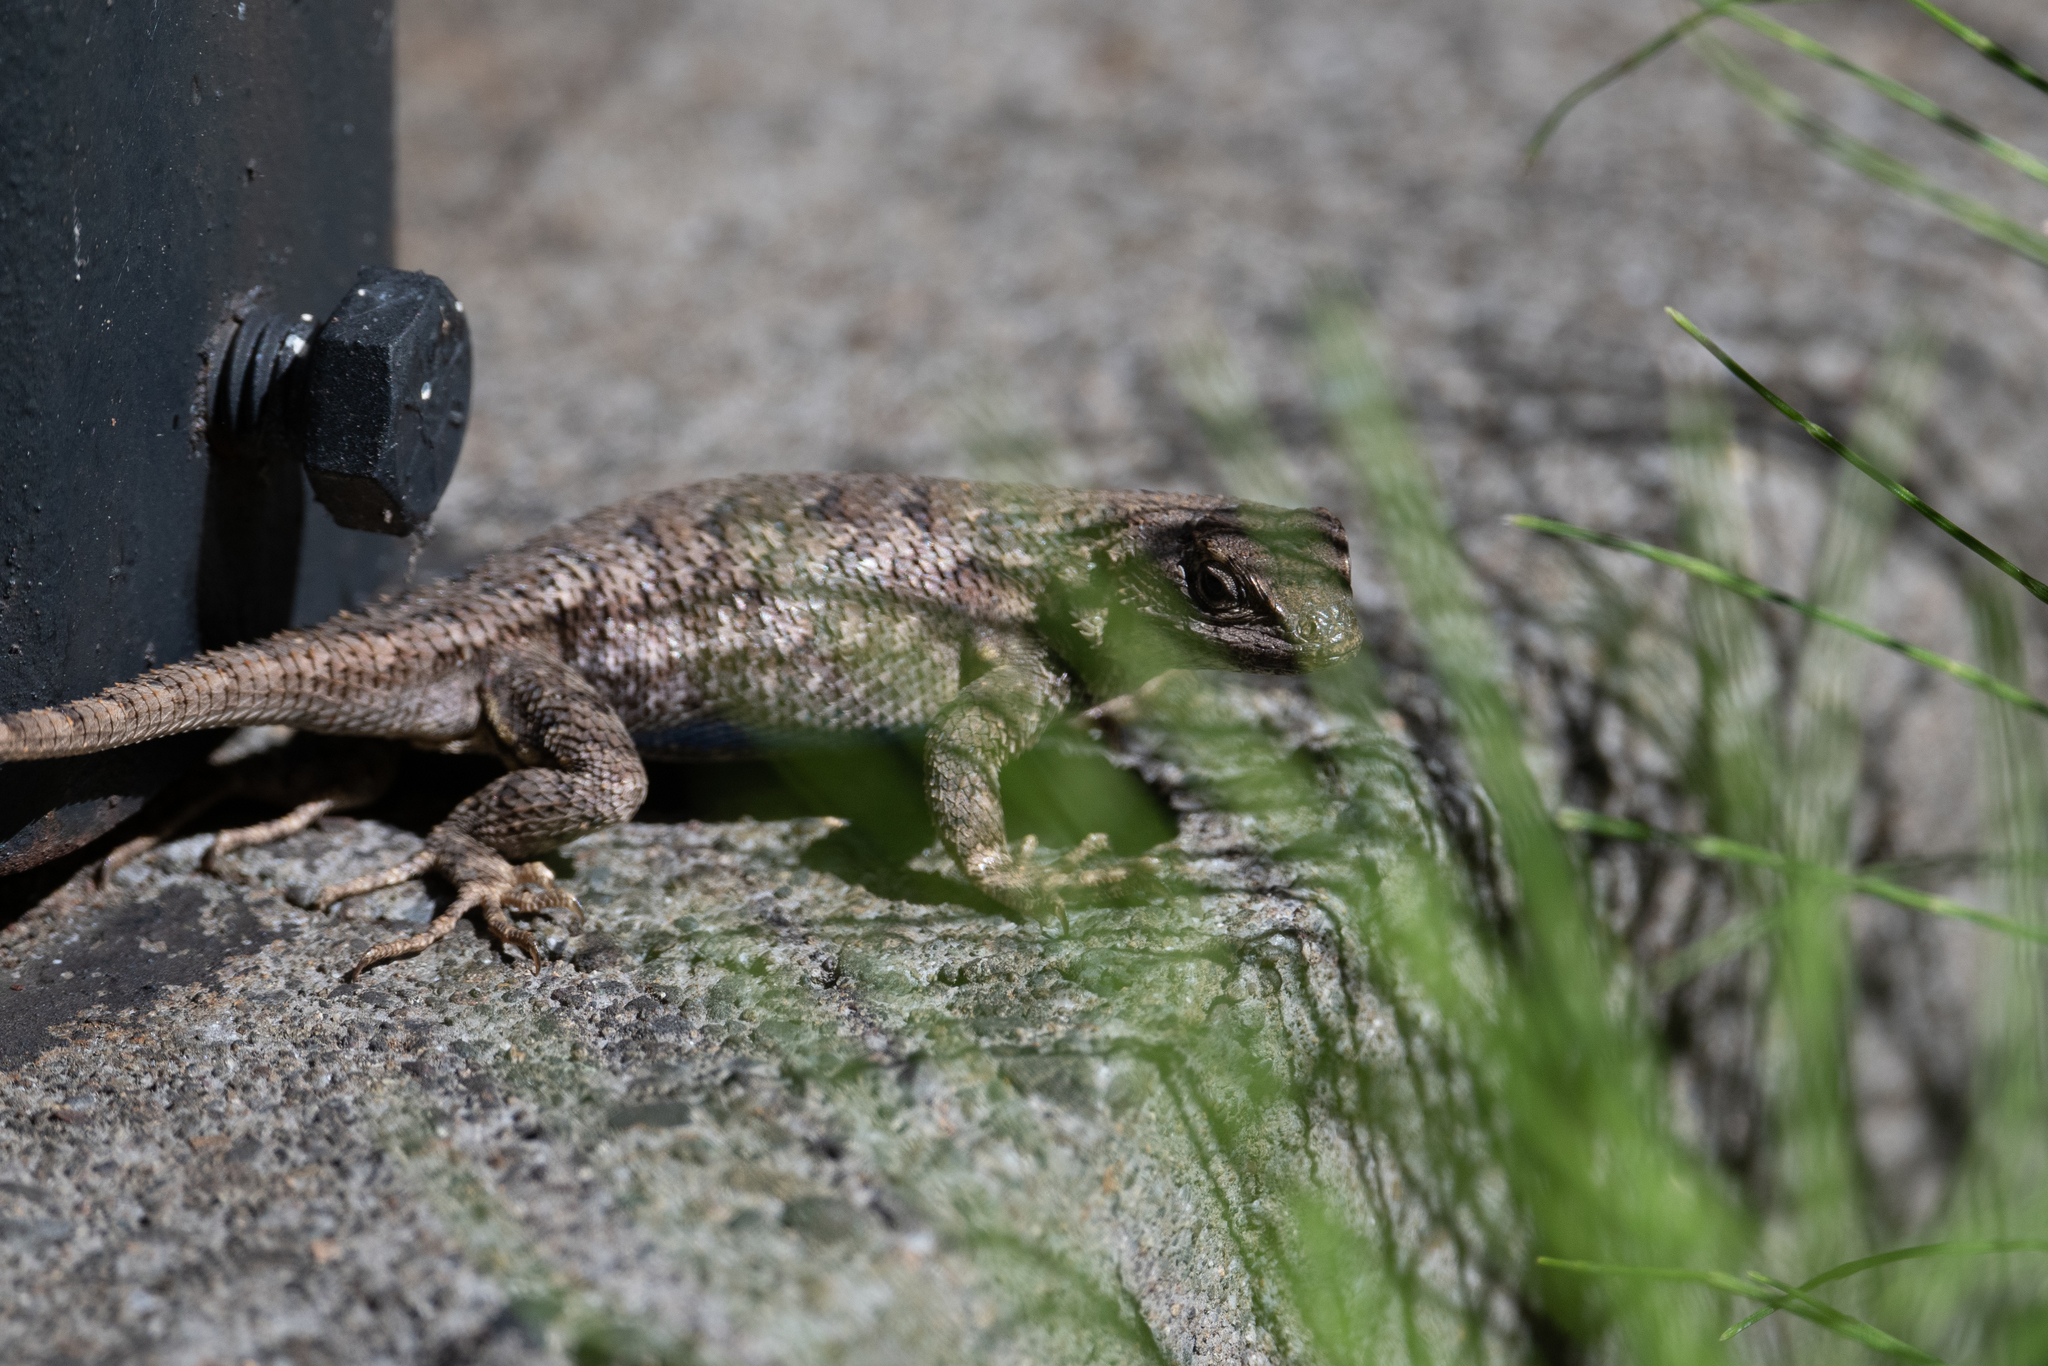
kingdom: Animalia
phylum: Chordata
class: Squamata
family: Phrynosomatidae
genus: Sceloporus
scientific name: Sceloporus occidentalis
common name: Western fence lizard
